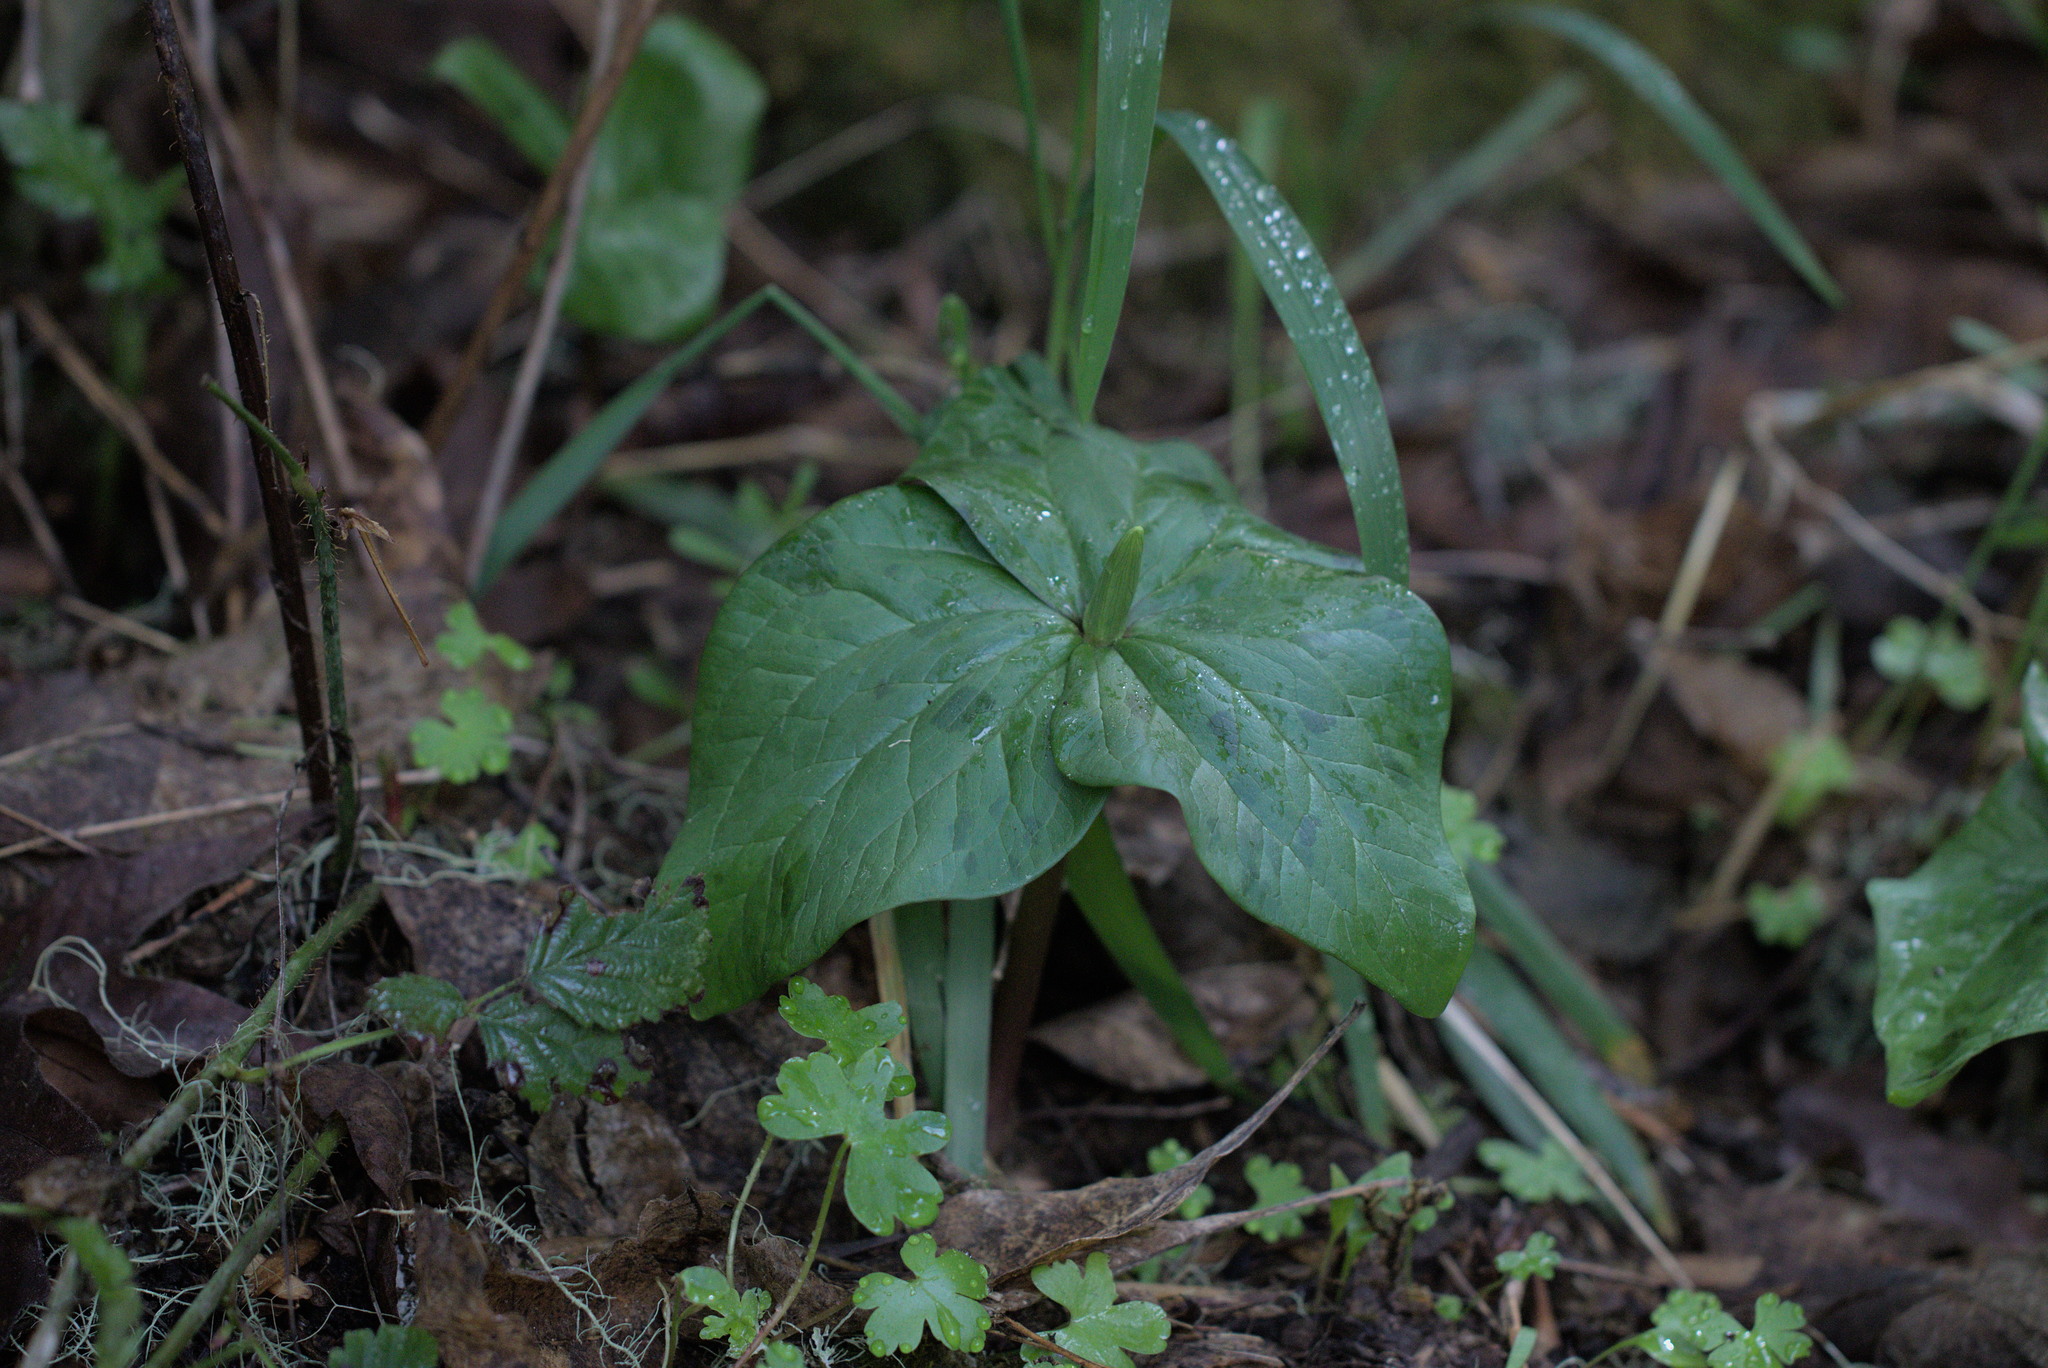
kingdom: Plantae
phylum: Tracheophyta
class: Liliopsida
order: Liliales
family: Melanthiaceae
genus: Trillium
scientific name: Trillium albidum
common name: Freeman's trillium
